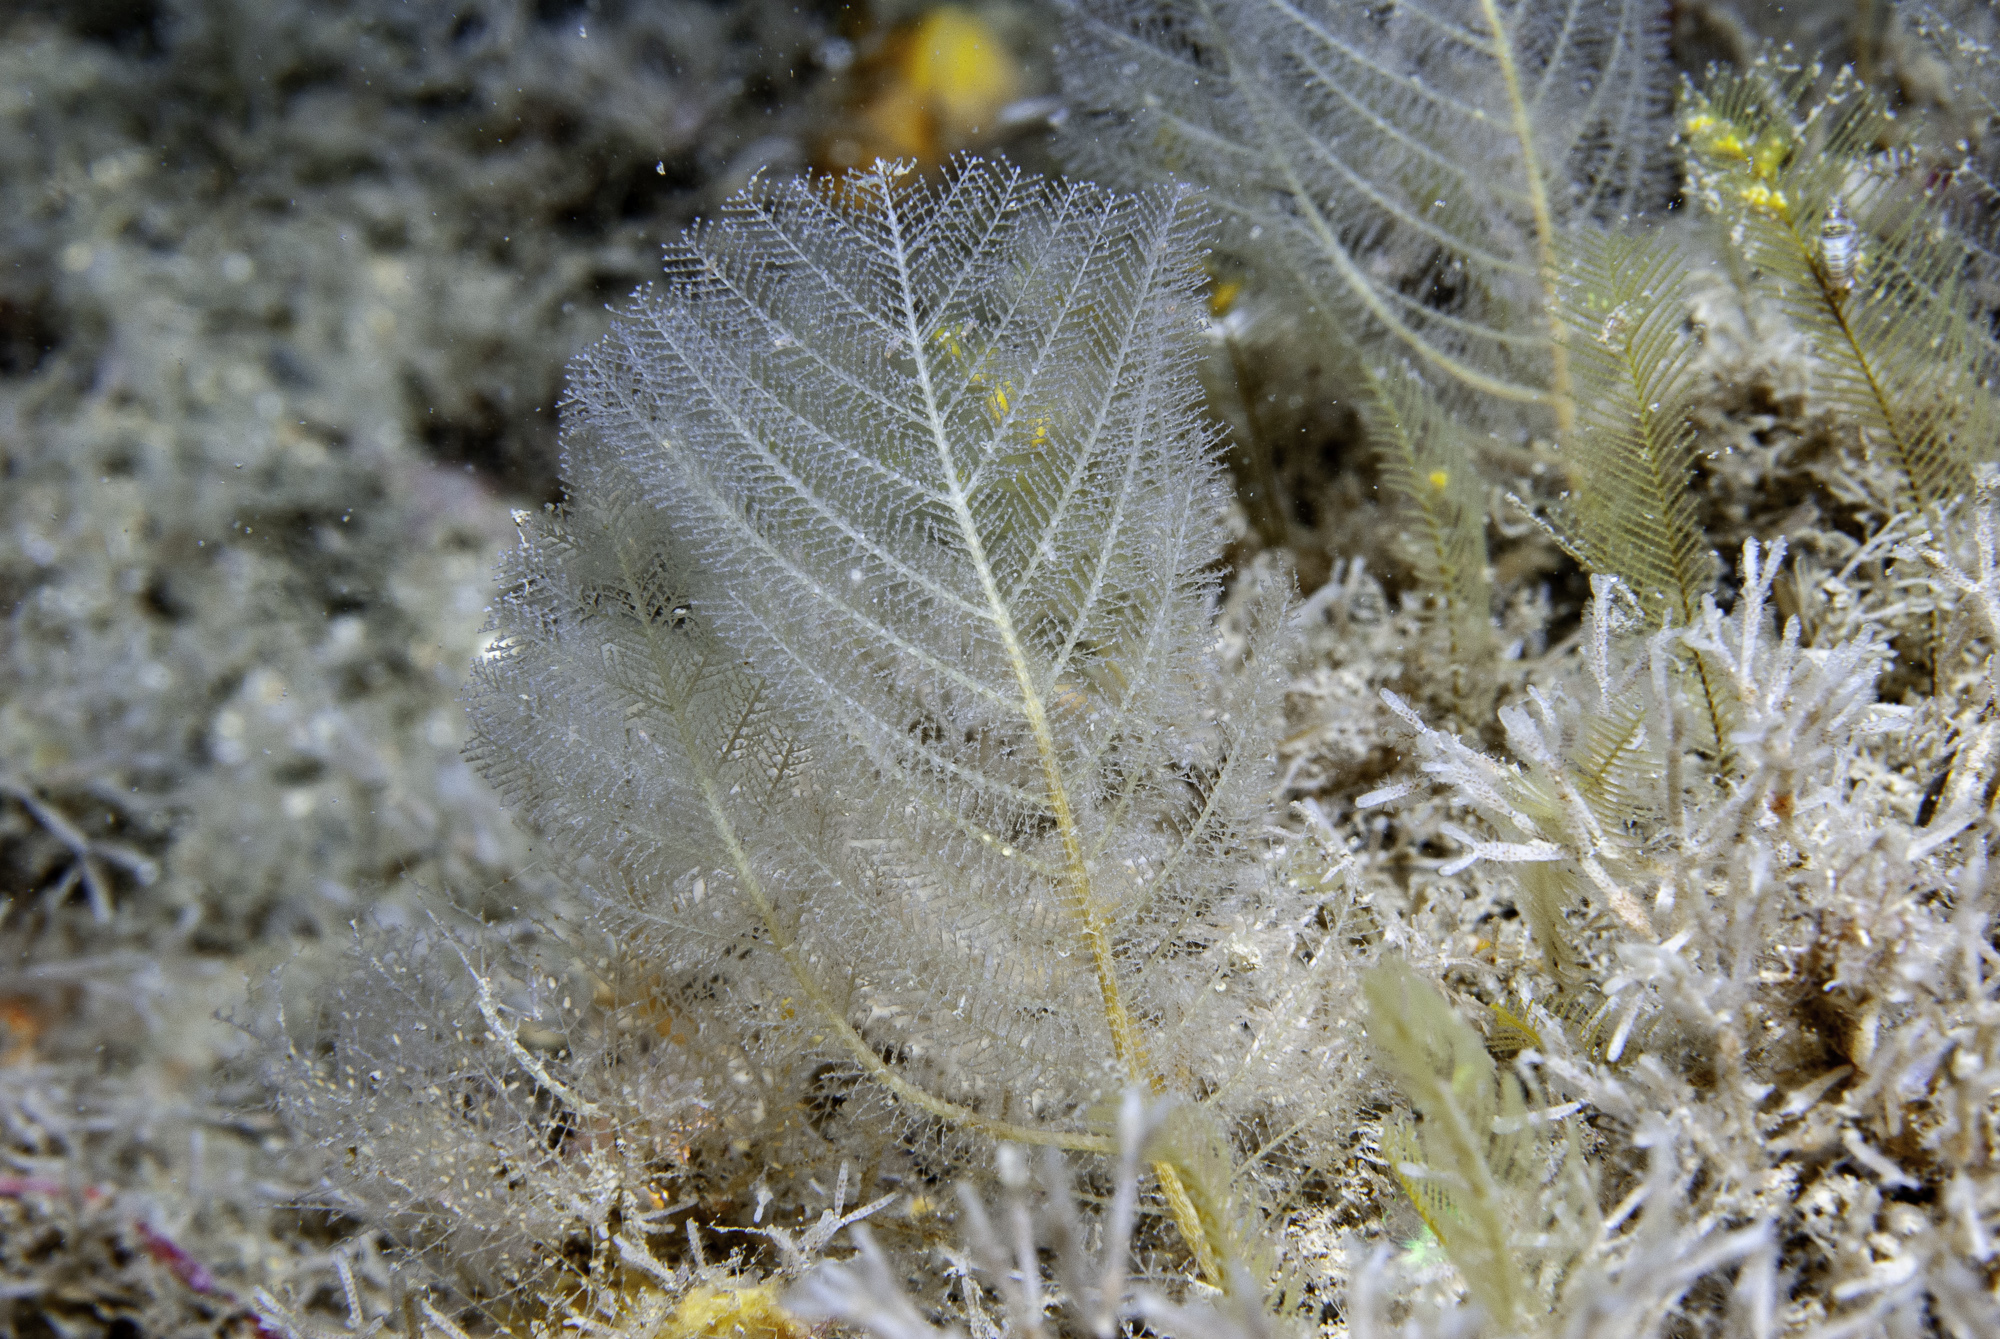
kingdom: Animalia
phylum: Cnidaria
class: Hydrozoa
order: Leptothecata
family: Halopterididae
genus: Polyplumaria
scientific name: Polyplumaria flabellata
